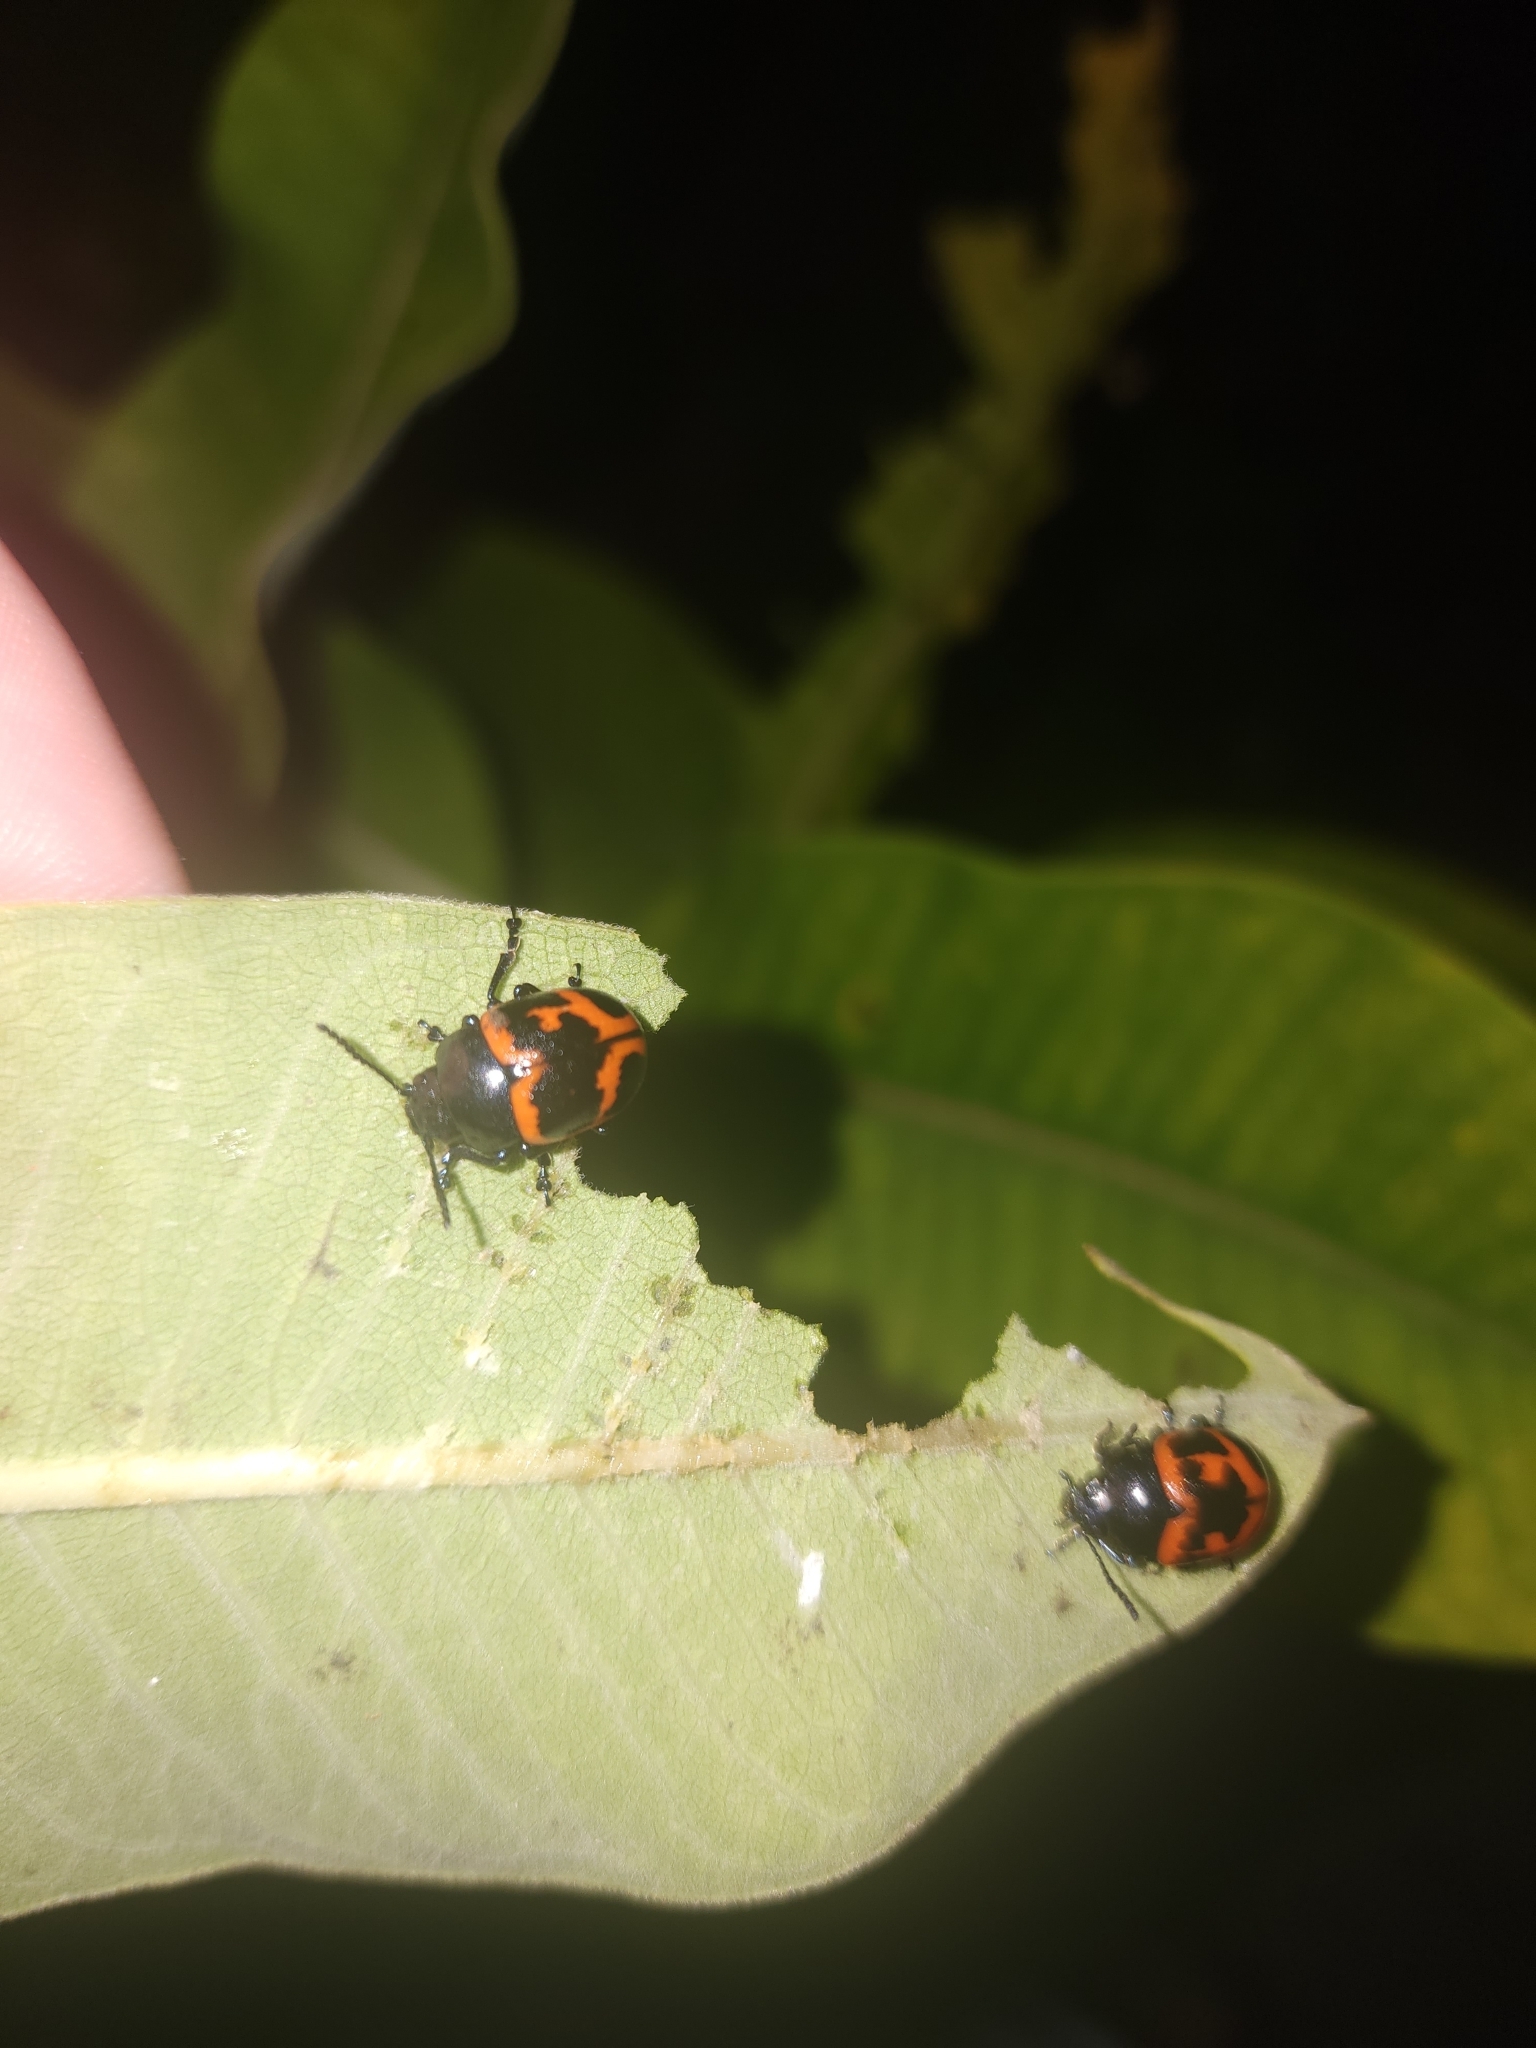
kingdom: Animalia
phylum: Arthropoda
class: Insecta
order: Coleoptera
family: Chrysomelidae
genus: Labidomera
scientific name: Labidomera clivicollis
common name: Swamp milkweed leaf beetle
